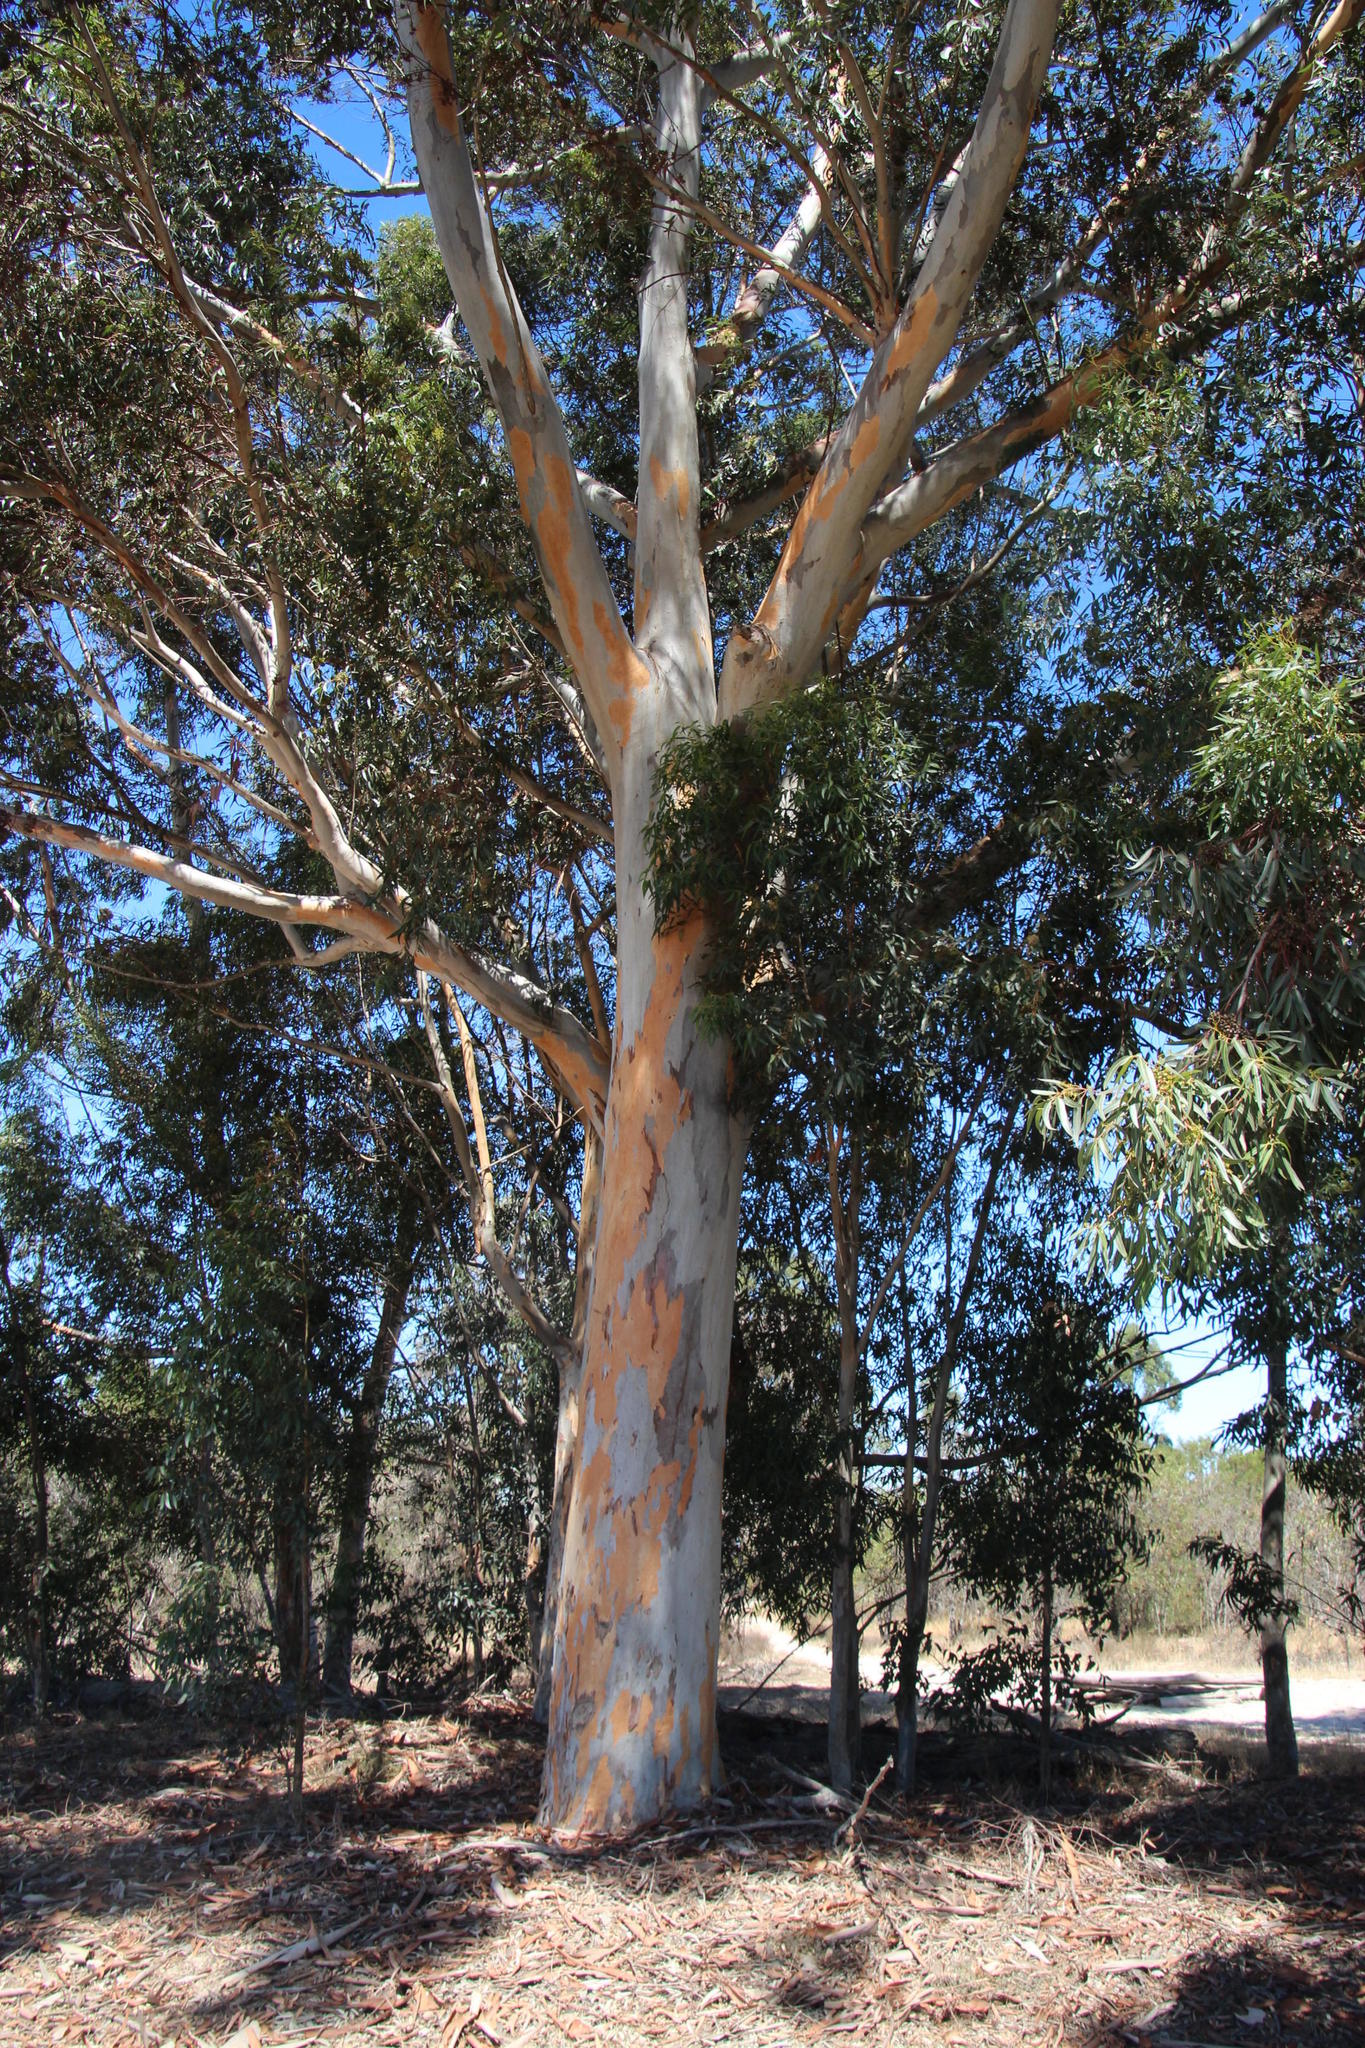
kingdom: Plantae
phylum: Tracheophyta
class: Magnoliopsida
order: Myrtales
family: Myrtaceae
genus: Eucalyptus
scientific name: Eucalyptus cladocalyx
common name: Sugargum
